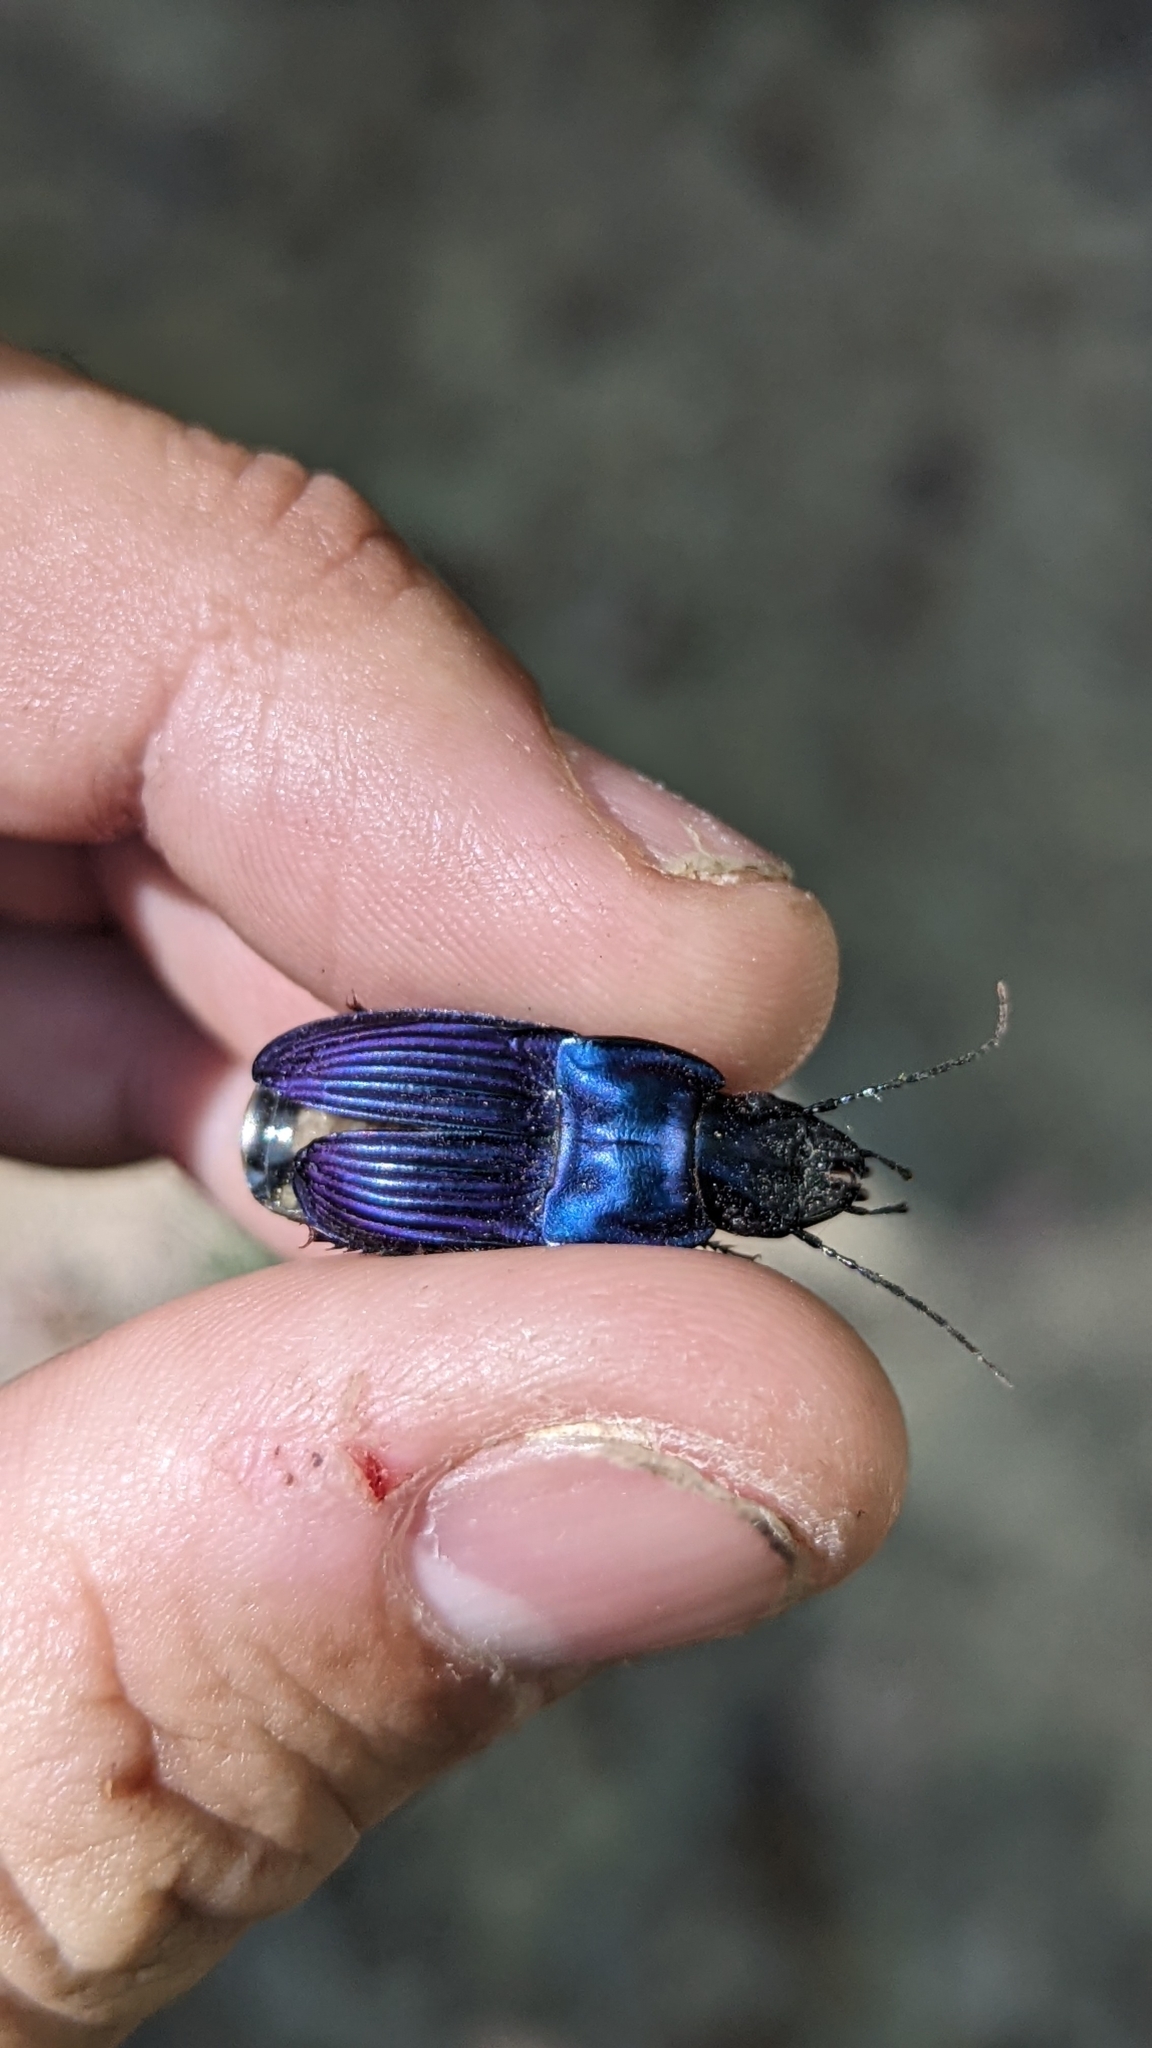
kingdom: Animalia
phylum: Arthropoda
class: Insecta
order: Coleoptera
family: Carabidae
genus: Dicaelus
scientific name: Dicaelus purpuratus
